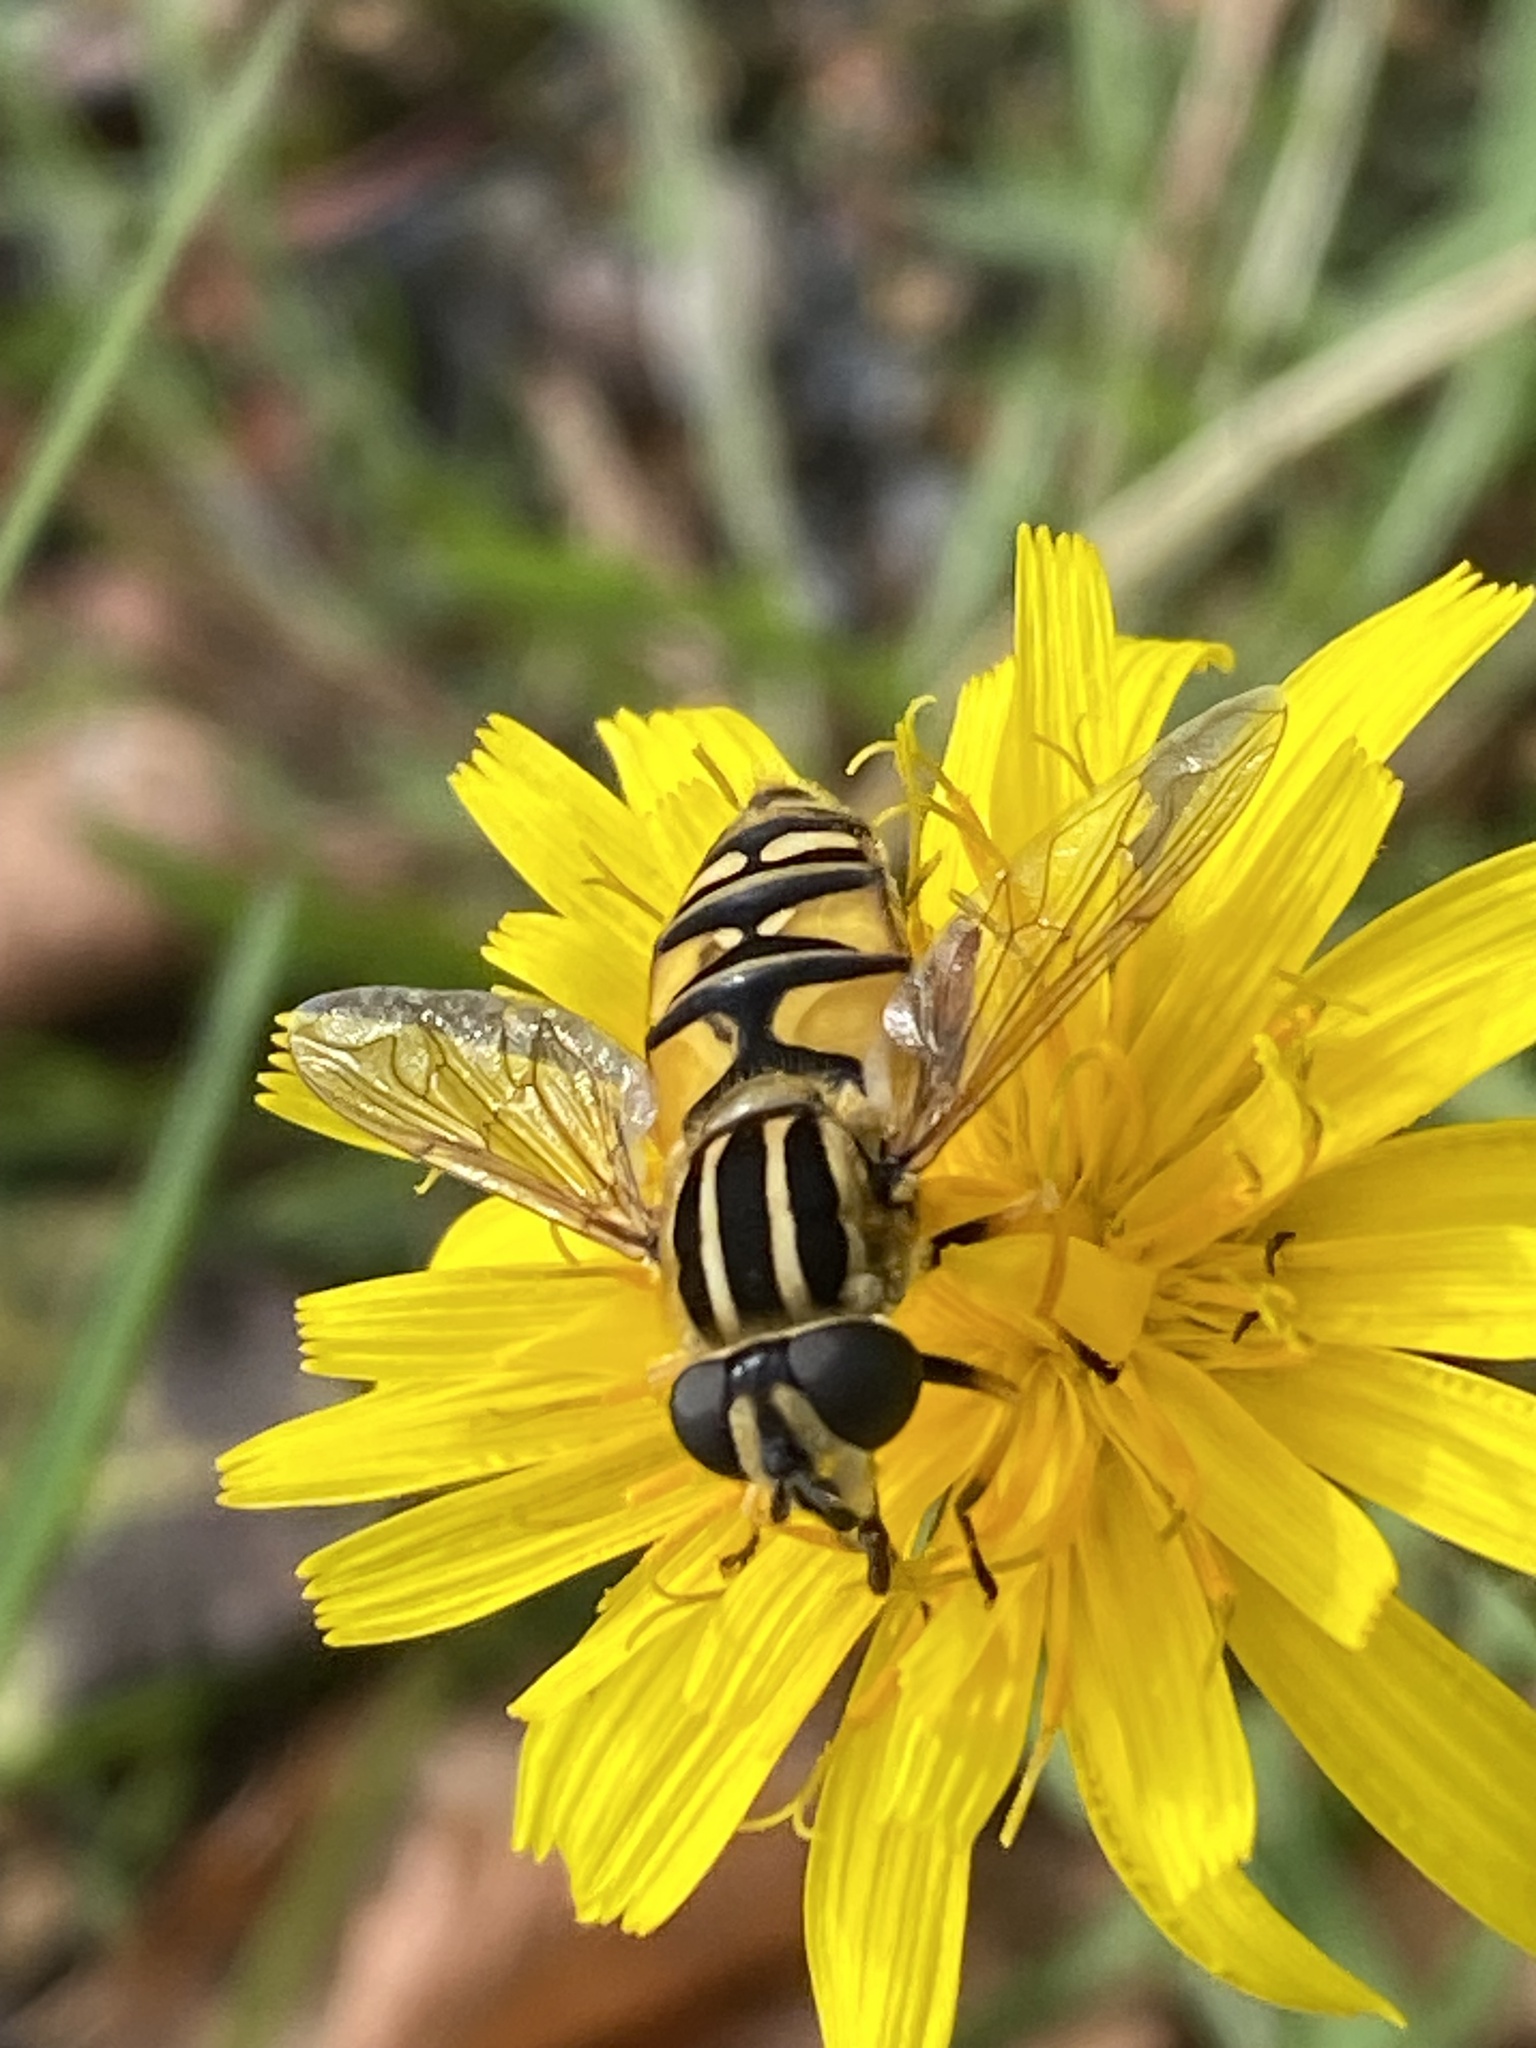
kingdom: Animalia
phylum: Arthropoda
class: Insecta
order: Diptera
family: Syrphidae
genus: Helophilus
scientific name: Helophilus pendulus
